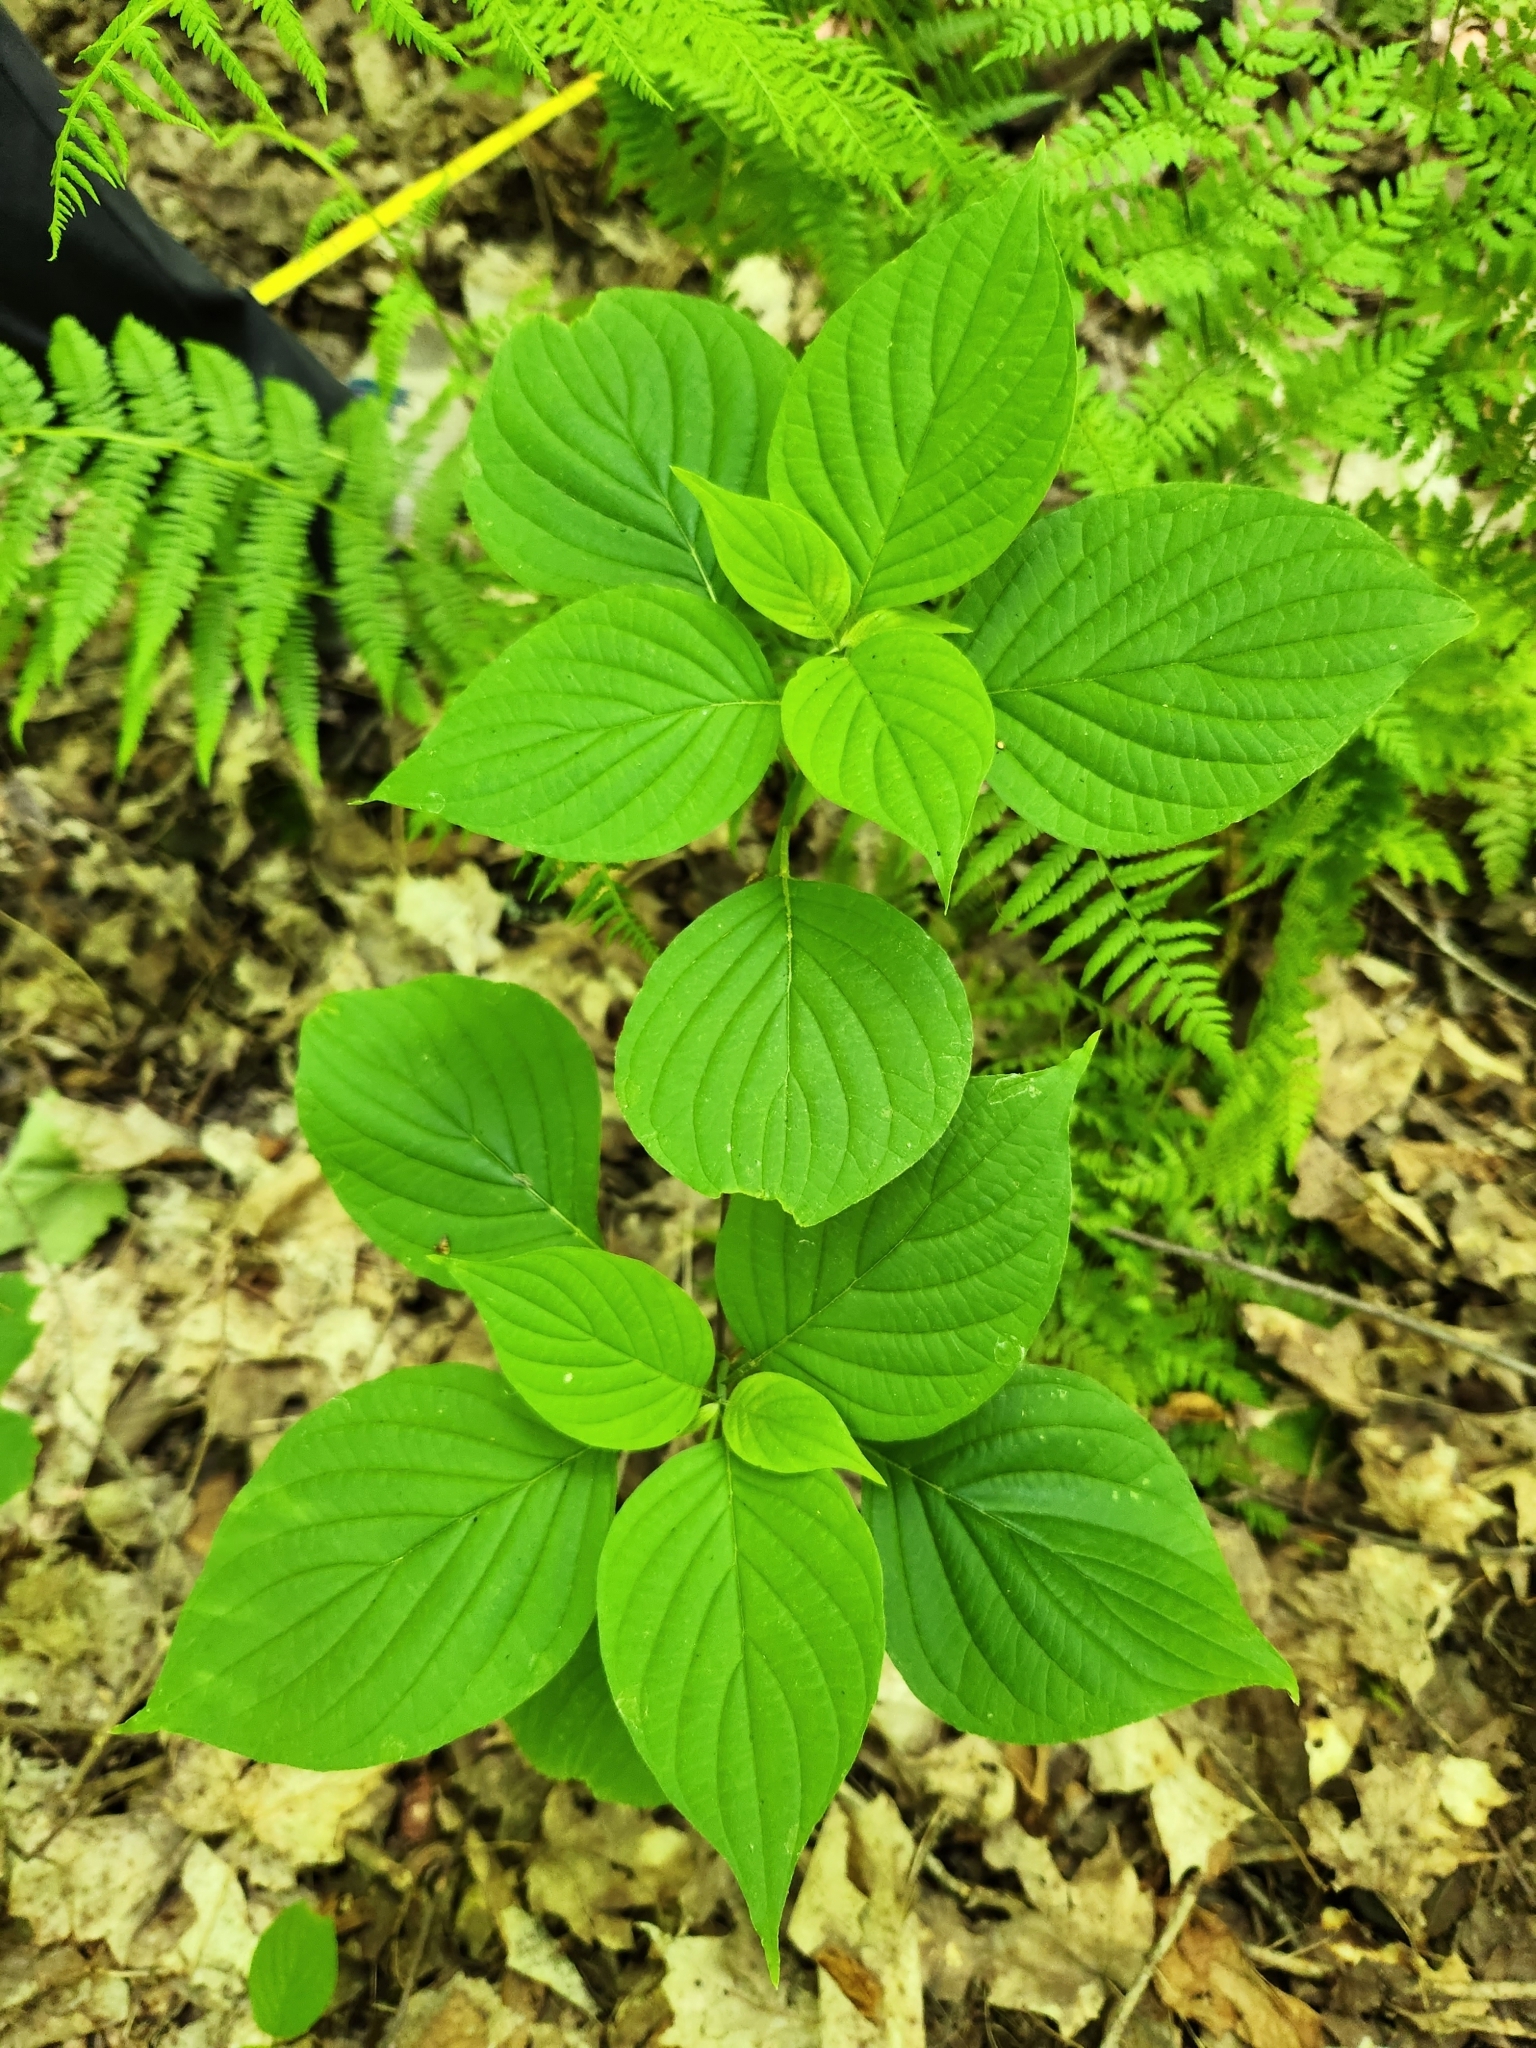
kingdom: Plantae
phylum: Tracheophyta
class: Magnoliopsida
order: Cornales
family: Cornaceae
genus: Cornus
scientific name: Cornus alternifolia
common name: Pagoda dogwood
